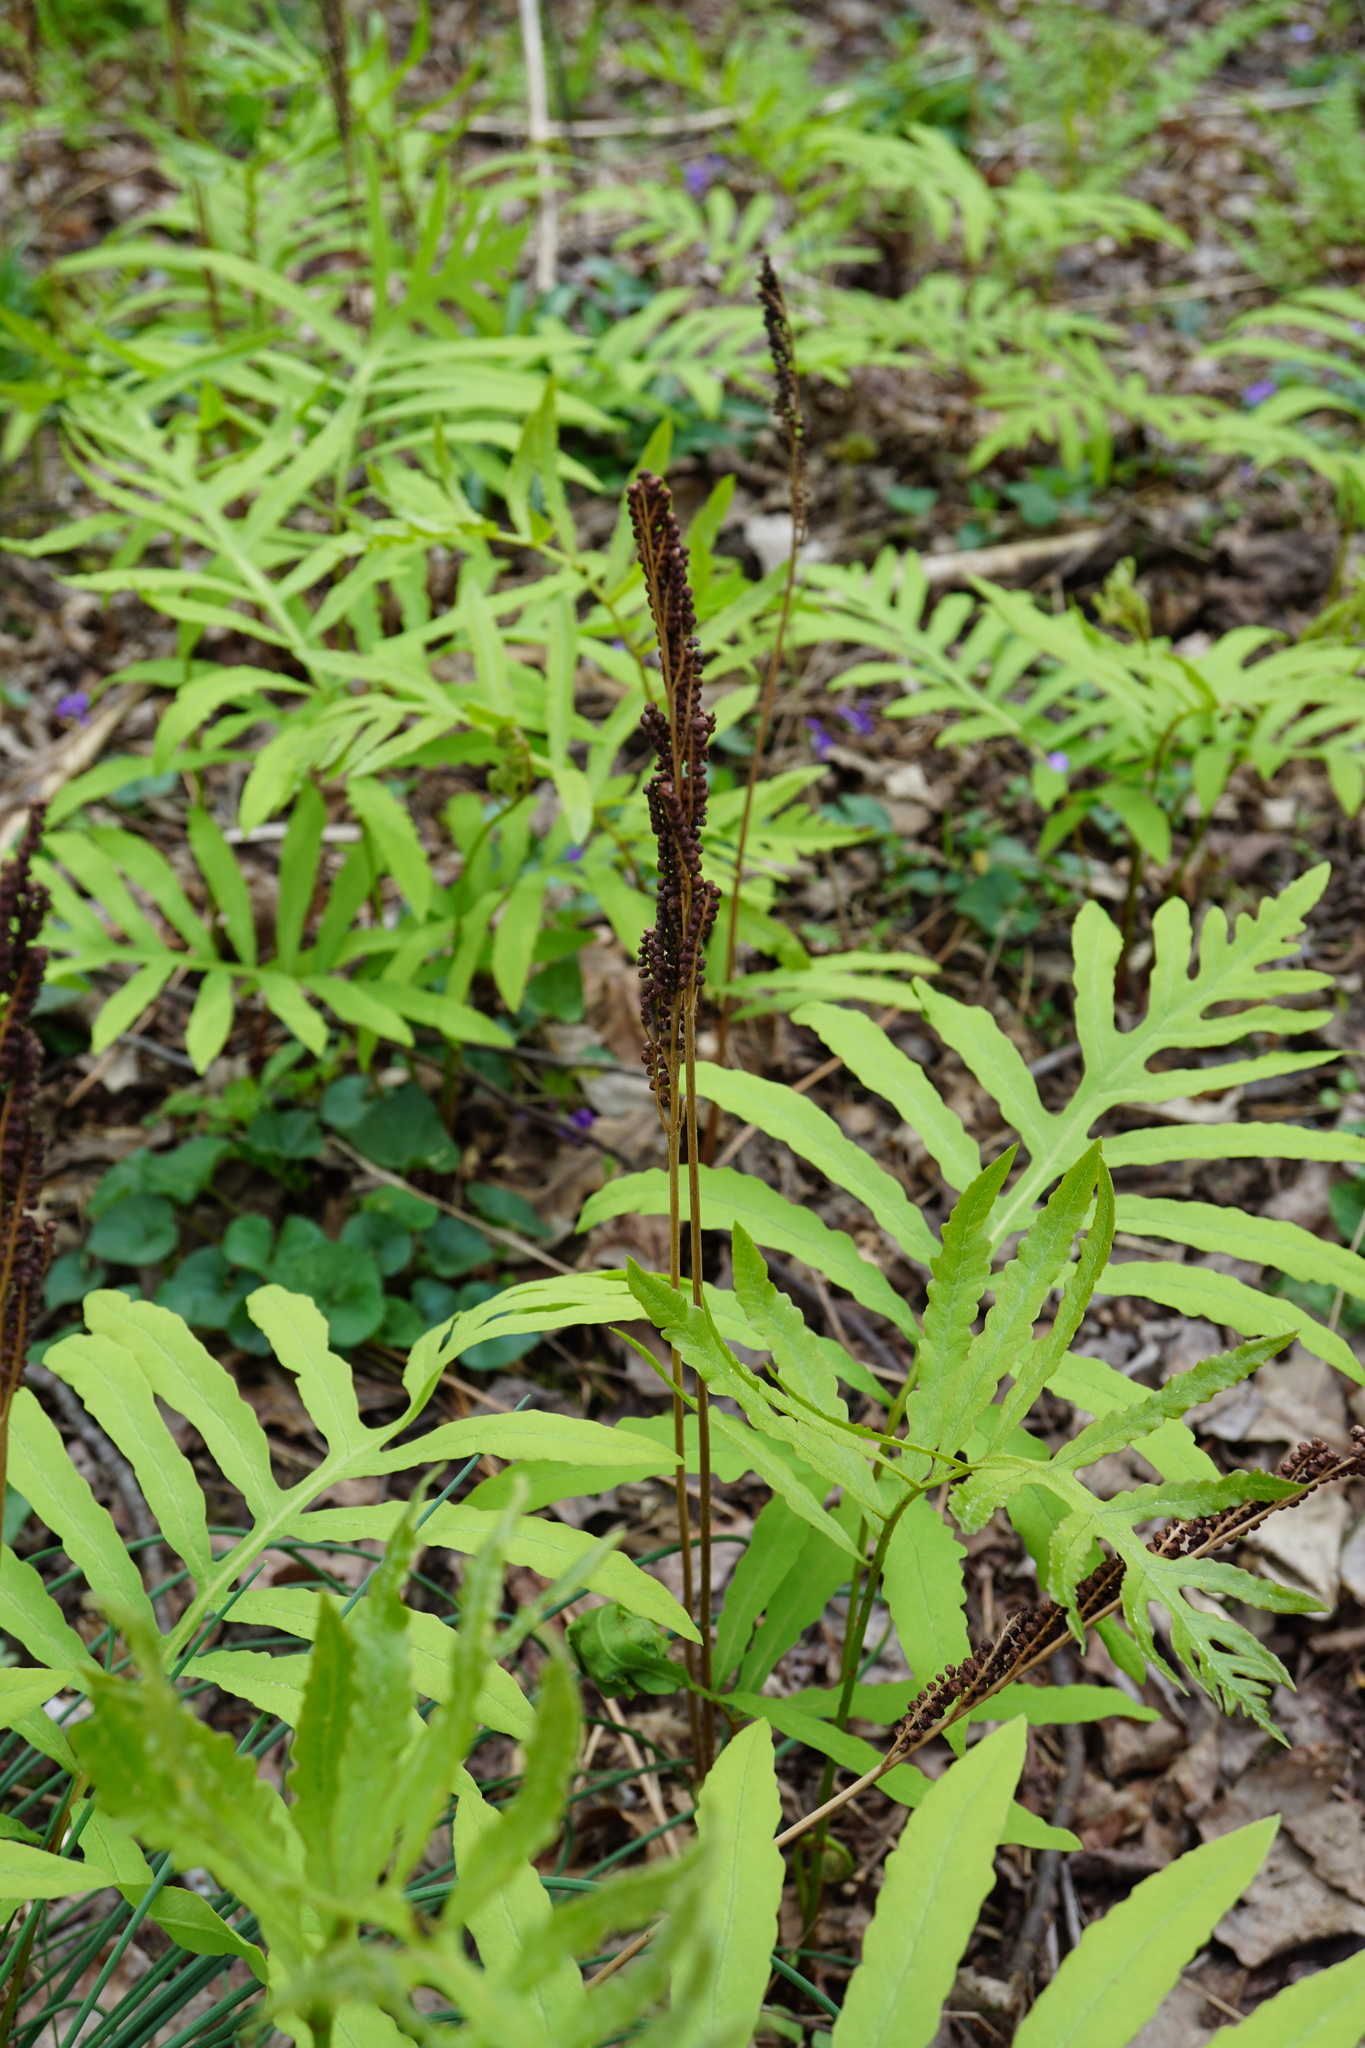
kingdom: Plantae
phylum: Tracheophyta
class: Polypodiopsida
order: Polypodiales
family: Onocleaceae
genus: Onoclea
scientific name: Onoclea sensibilis
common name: Sensitive fern
